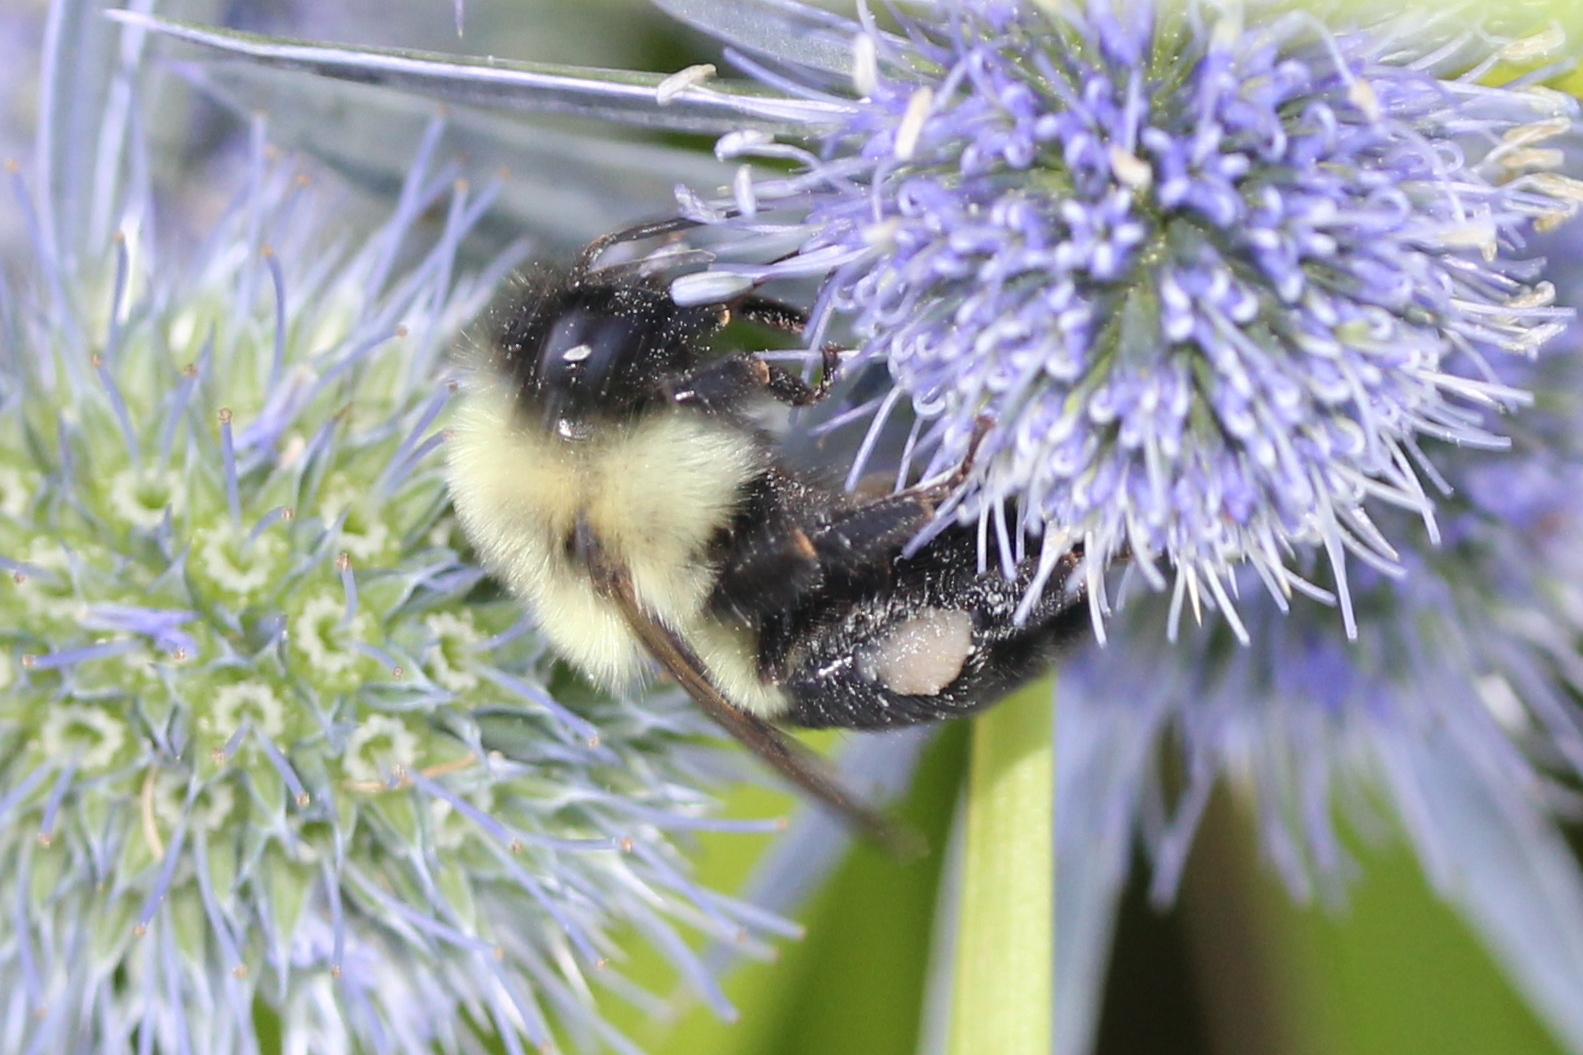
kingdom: Animalia
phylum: Arthropoda
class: Insecta
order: Hymenoptera
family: Apidae
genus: Bombus
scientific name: Bombus griseocollis
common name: Brown-belted bumble bee
